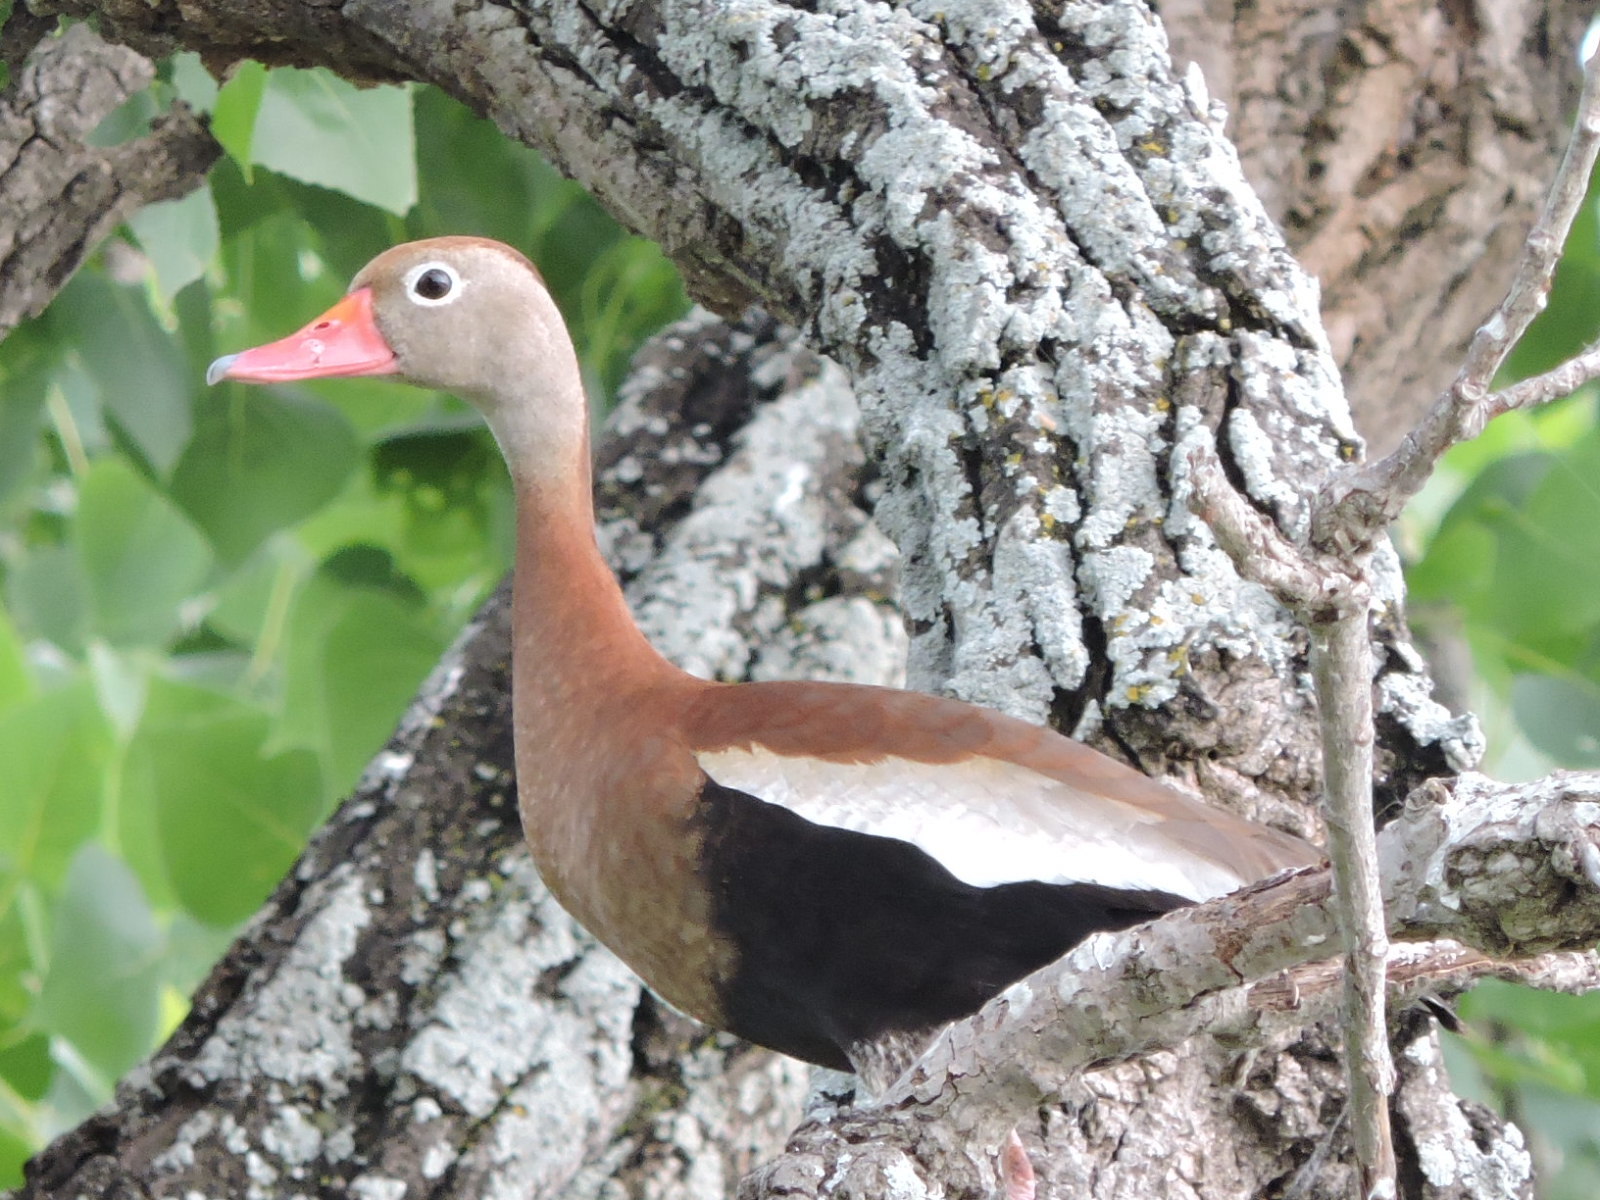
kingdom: Animalia
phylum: Chordata
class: Aves
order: Anseriformes
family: Anatidae
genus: Dendrocygna
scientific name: Dendrocygna autumnalis
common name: Black-bellied whistling duck
